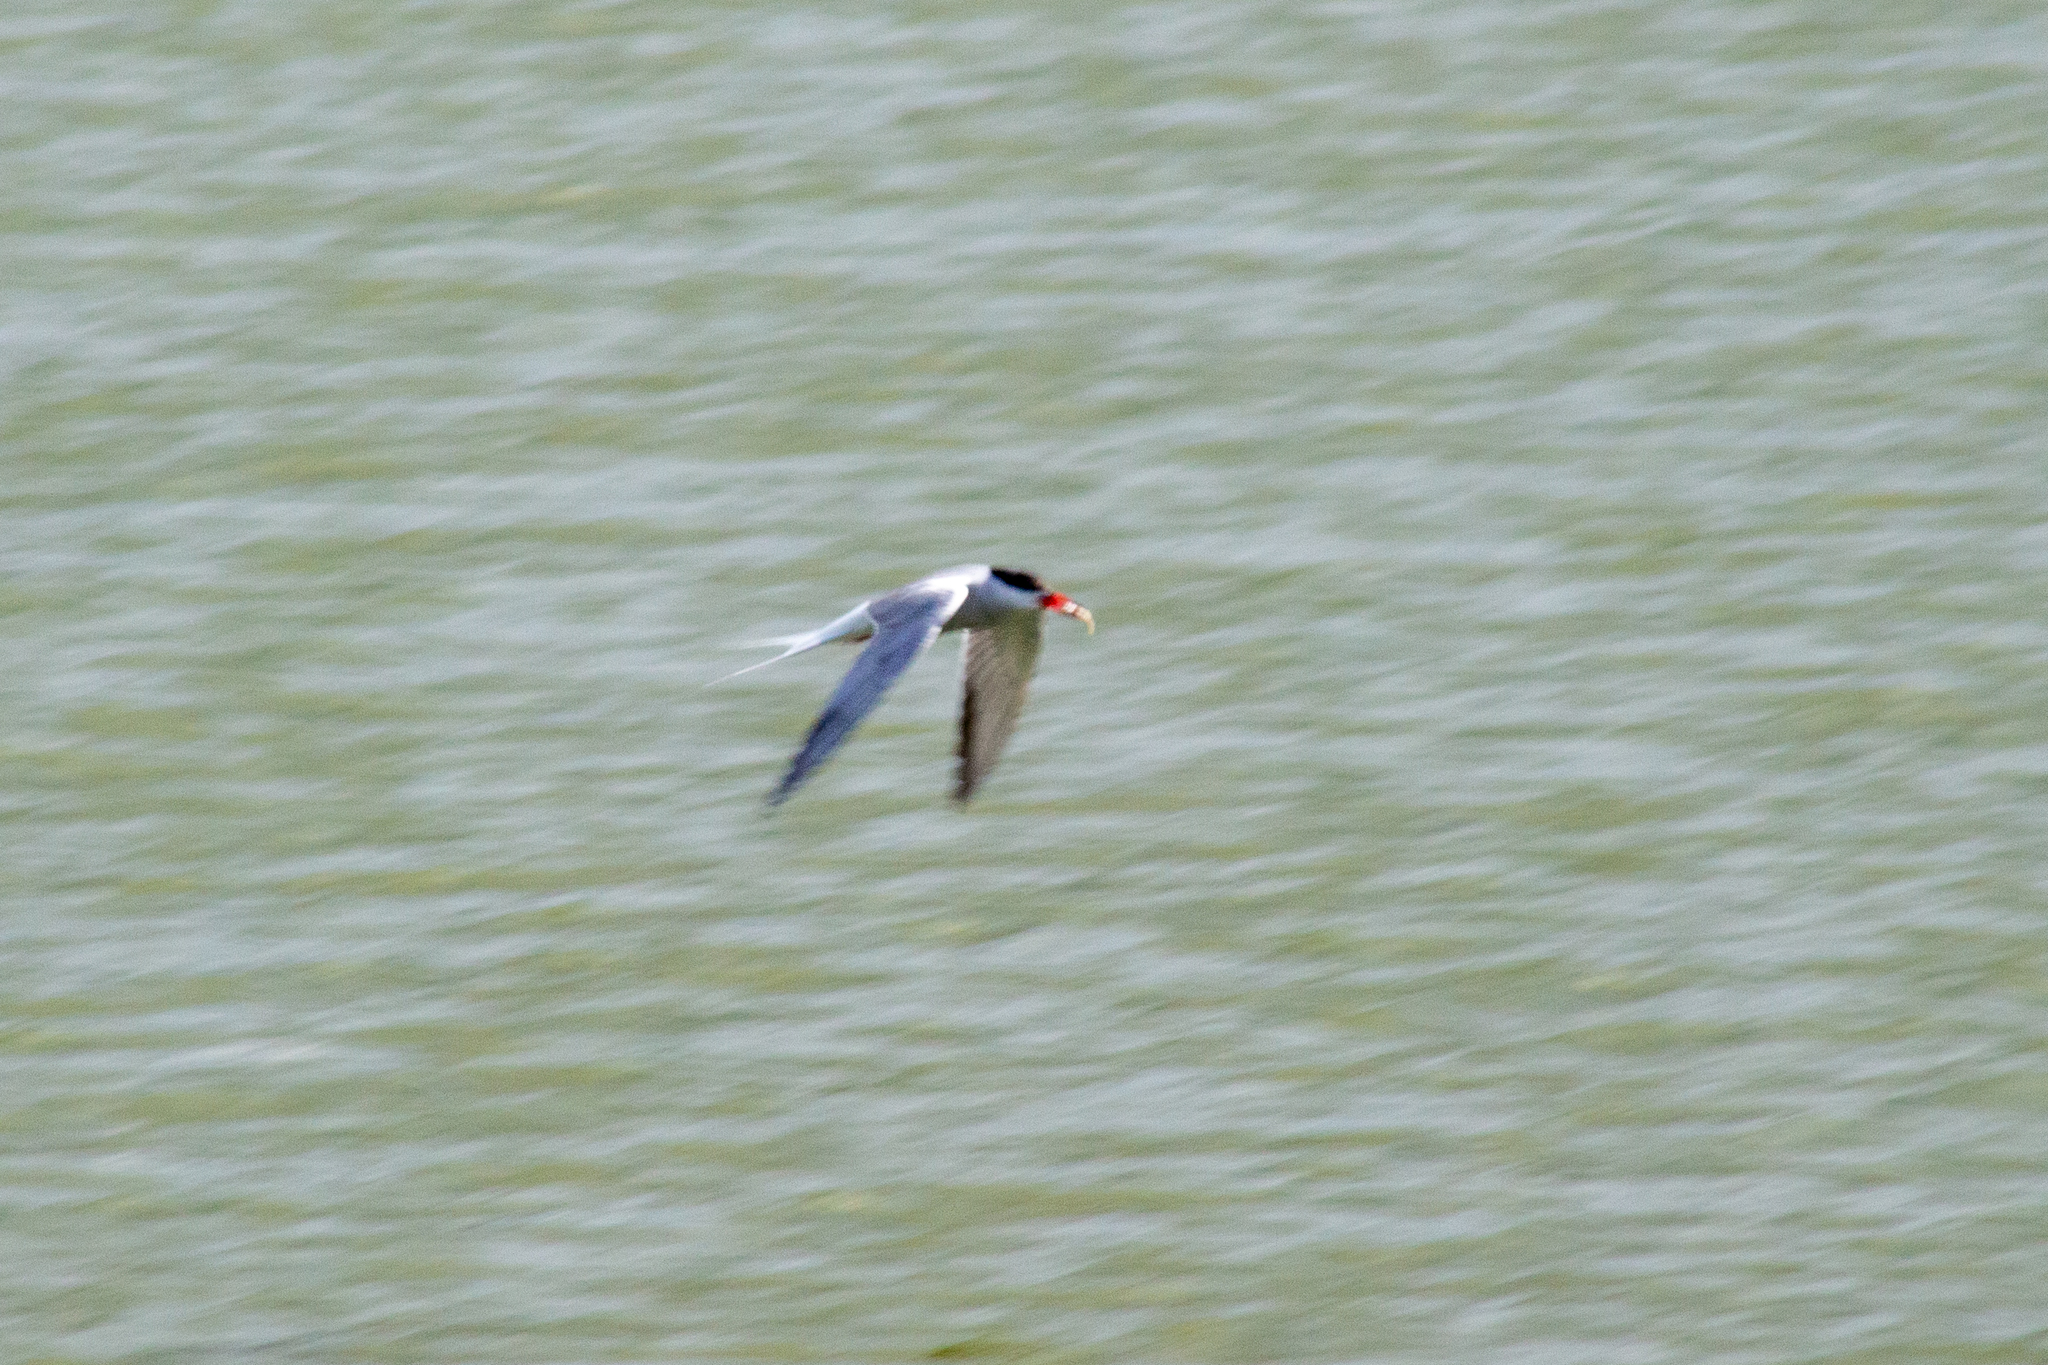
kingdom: Animalia
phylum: Chordata
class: Aves
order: Charadriiformes
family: Laridae
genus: Sterna
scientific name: Sterna hirundo
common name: Common tern
